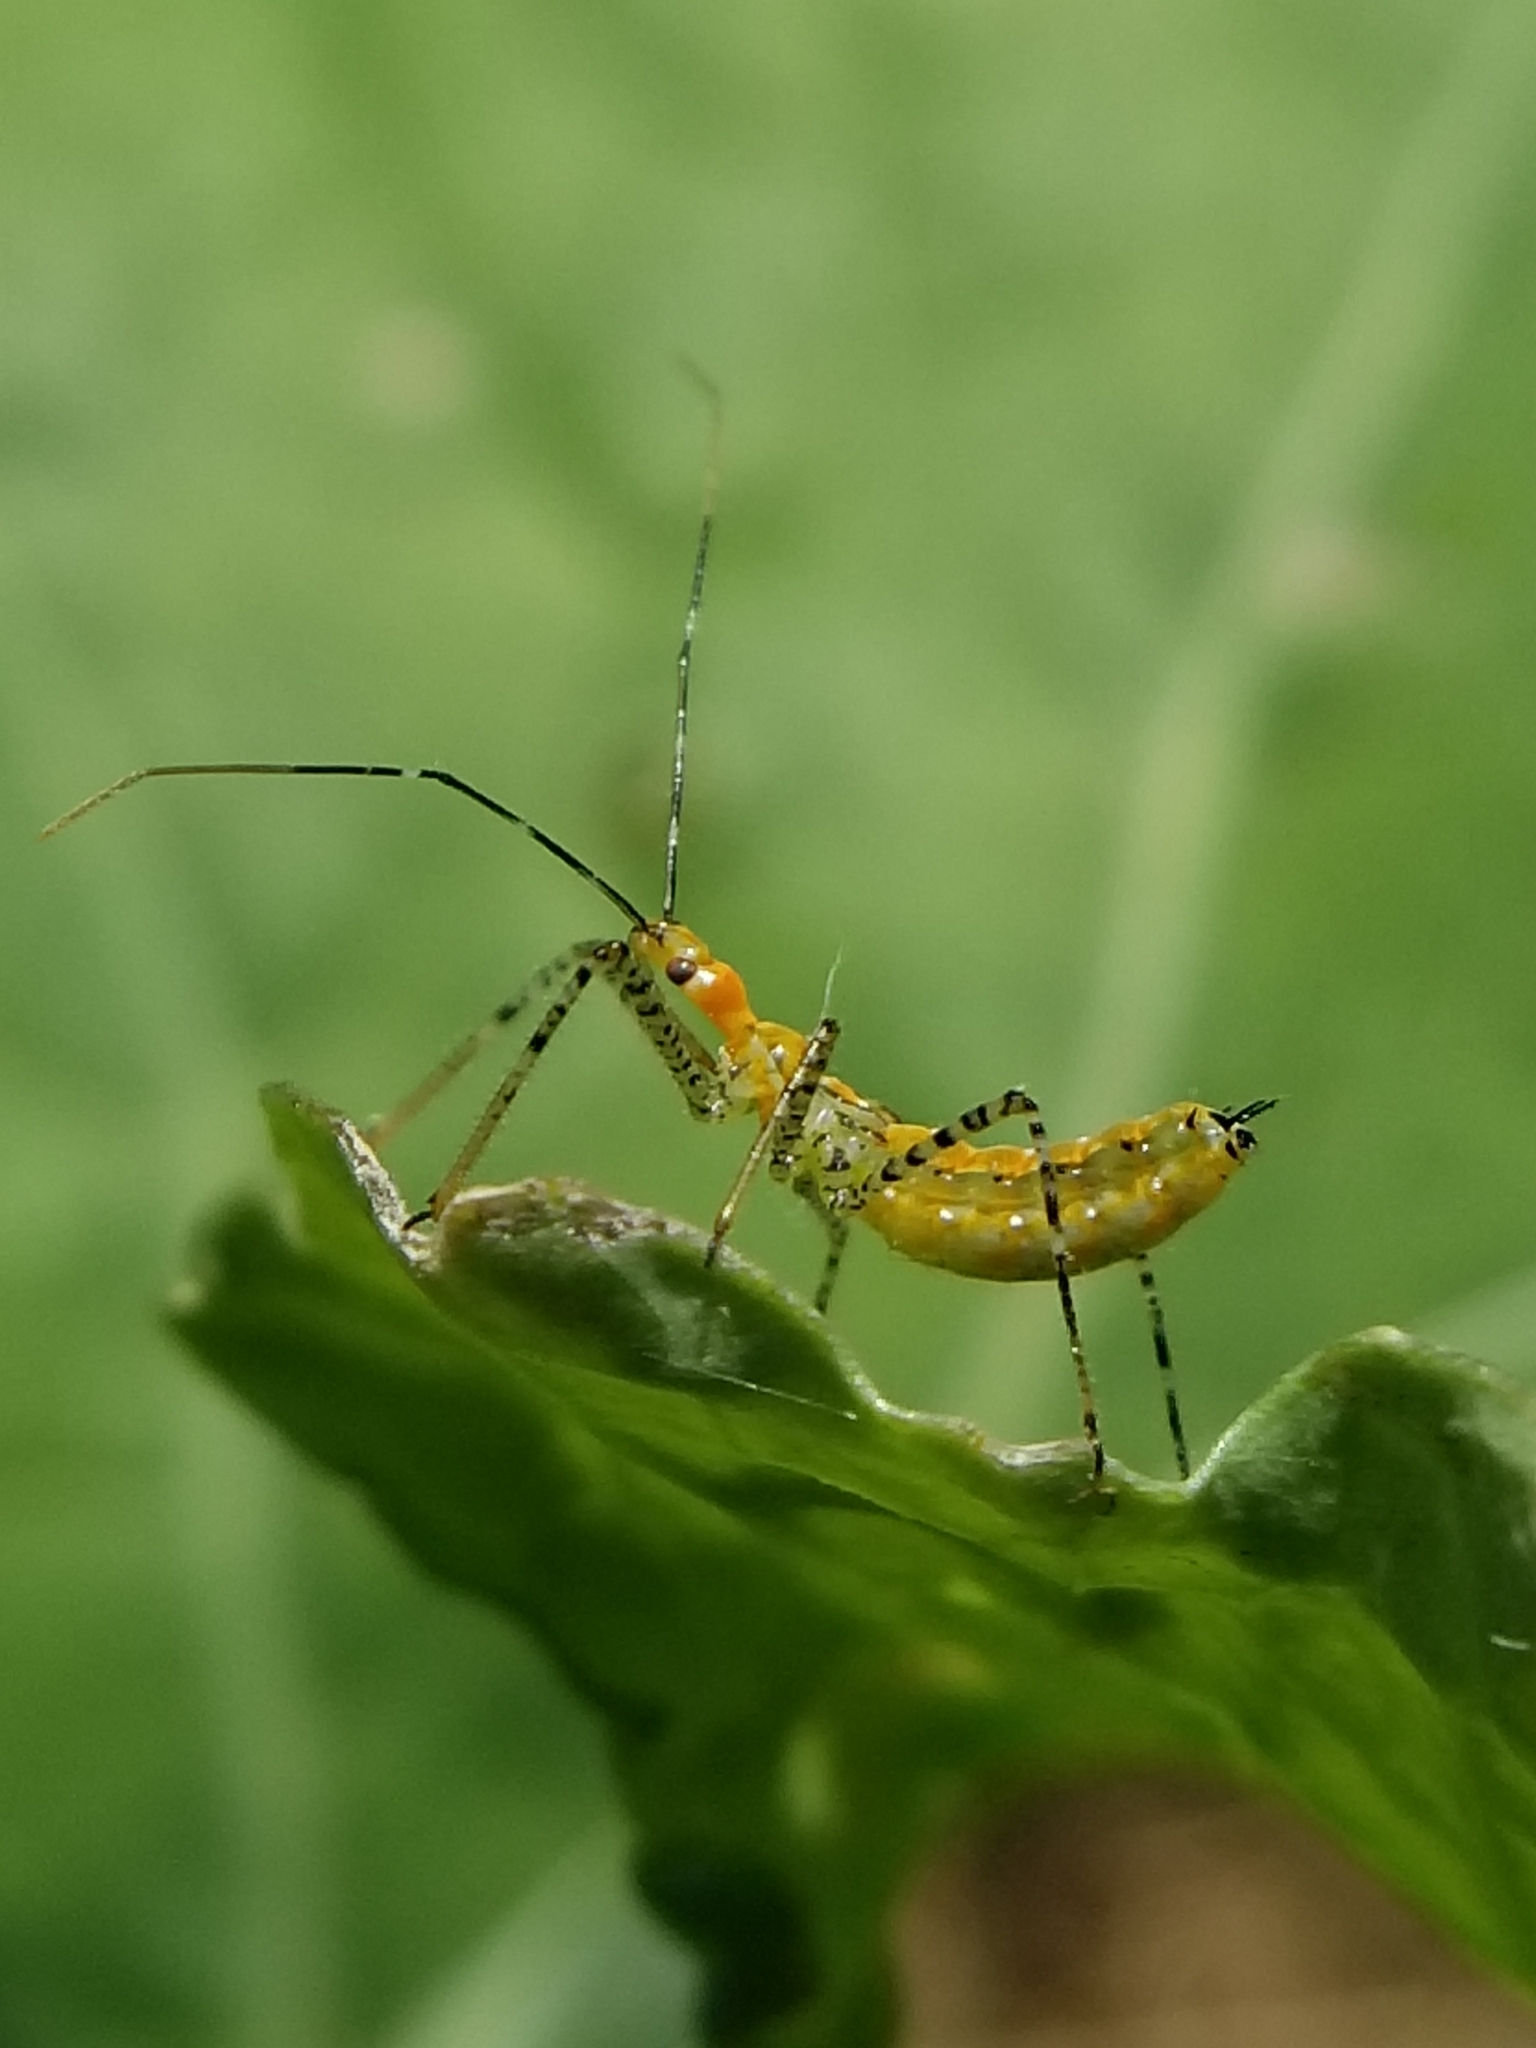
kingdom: Animalia
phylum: Arthropoda
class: Insecta
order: Hemiptera
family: Reduviidae
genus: Zelus
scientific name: Zelus renardii
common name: Assassin bug
